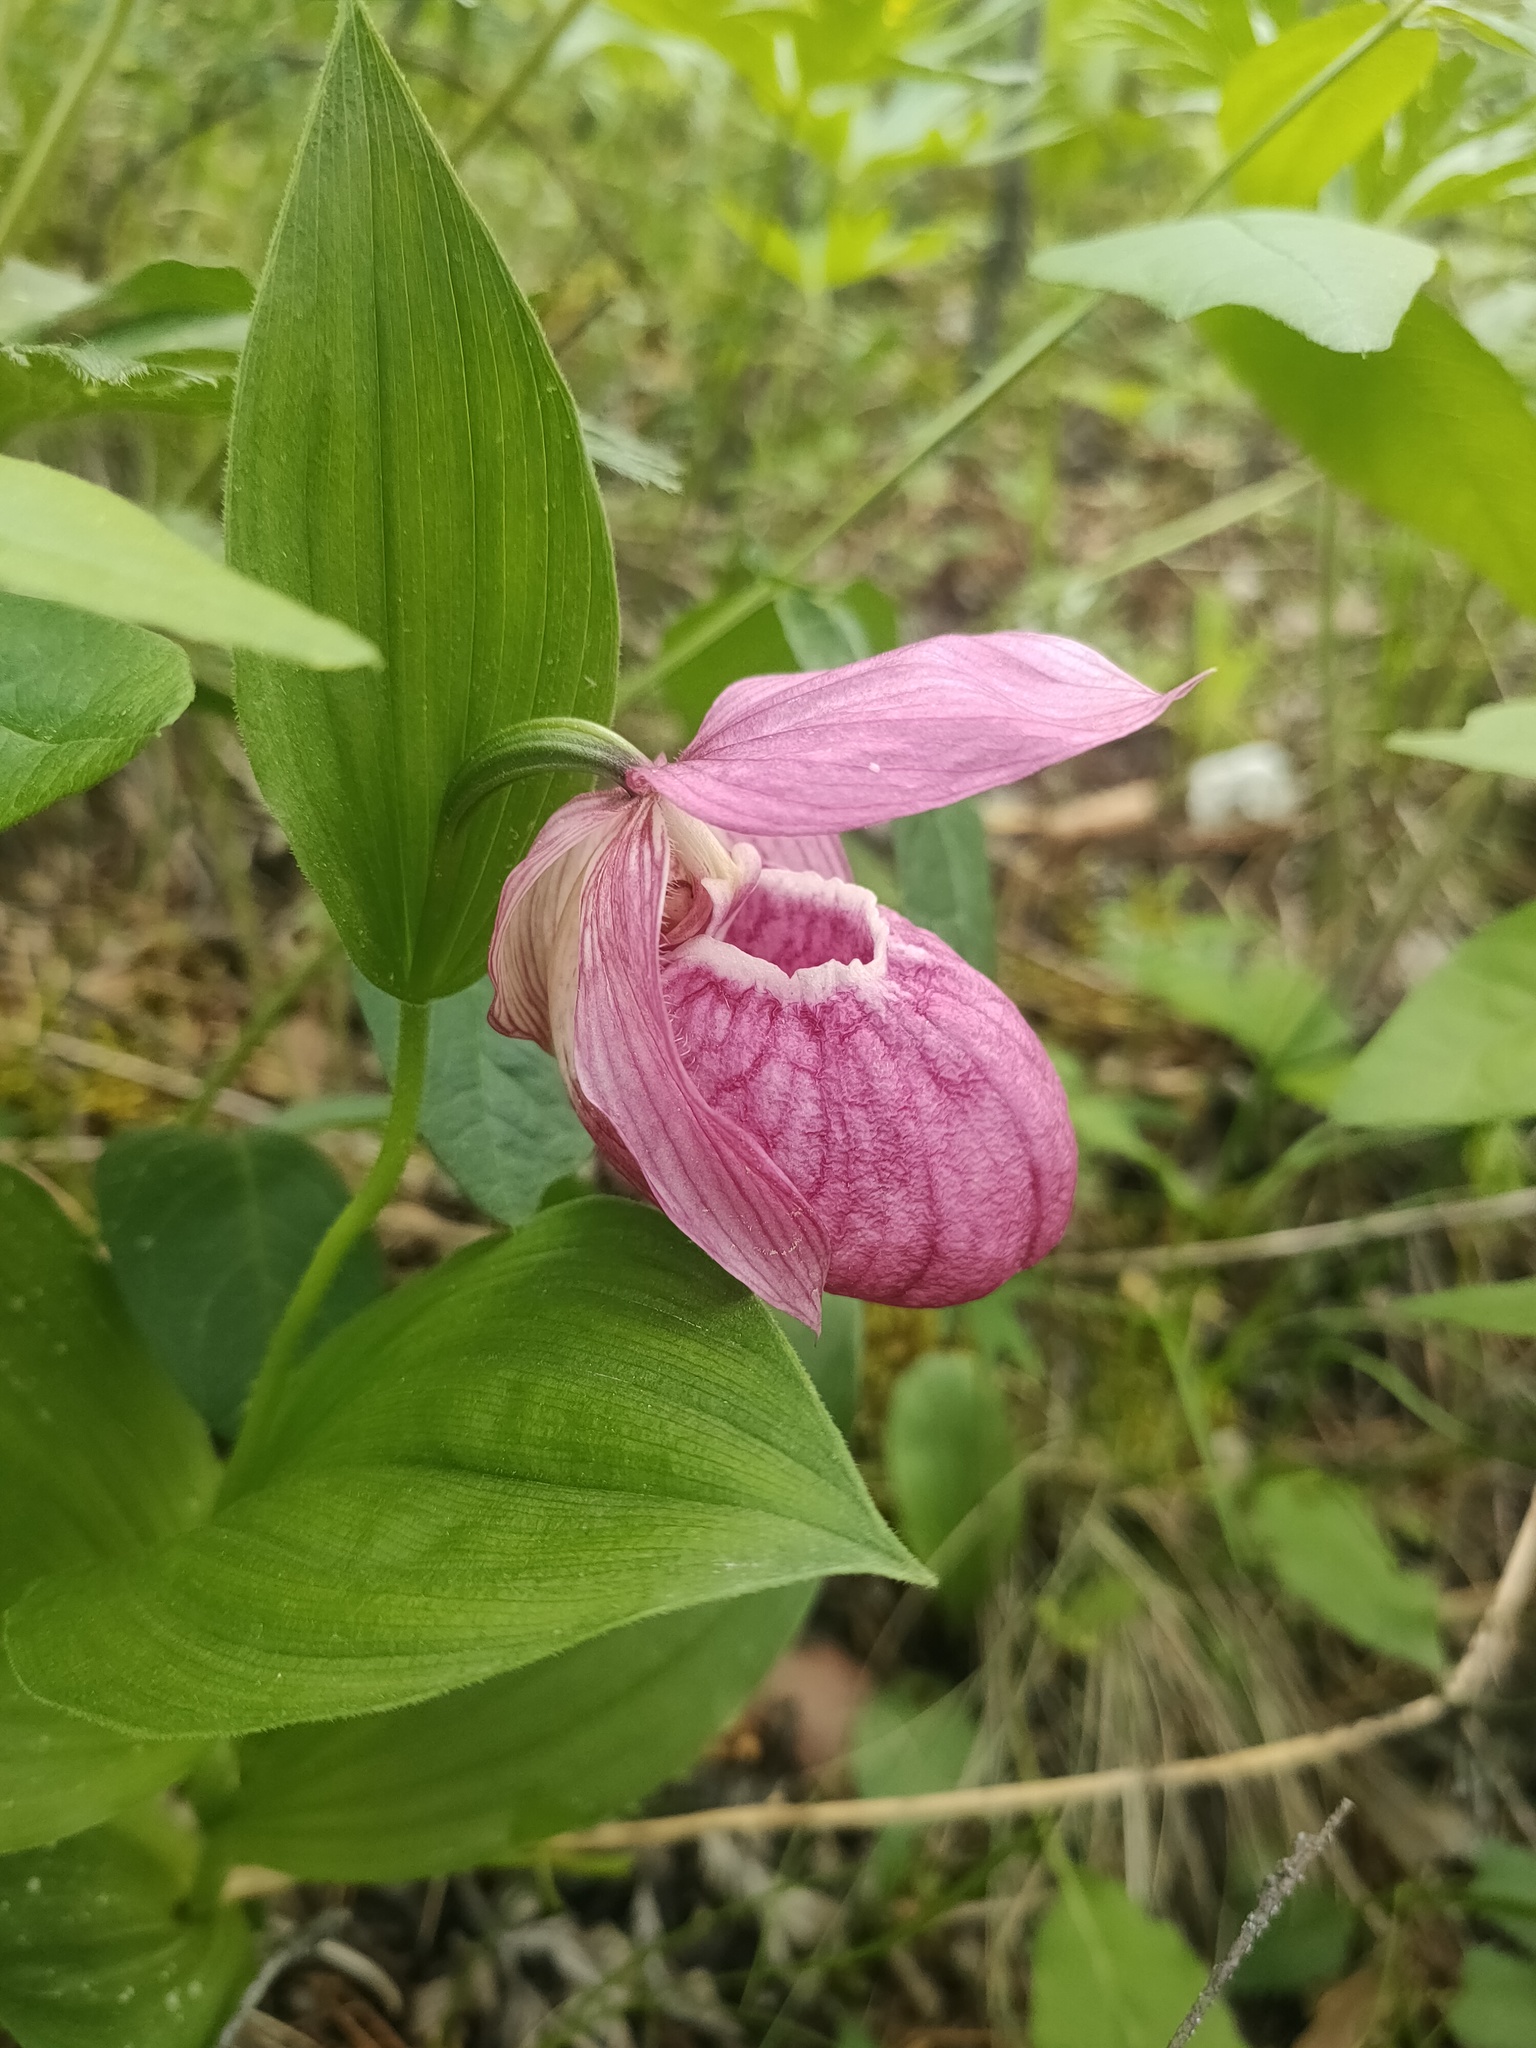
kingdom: Plantae
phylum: Tracheophyta
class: Liliopsida
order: Asparagales
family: Orchidaceae
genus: Cypripedium
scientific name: Cypripedium macranthos
